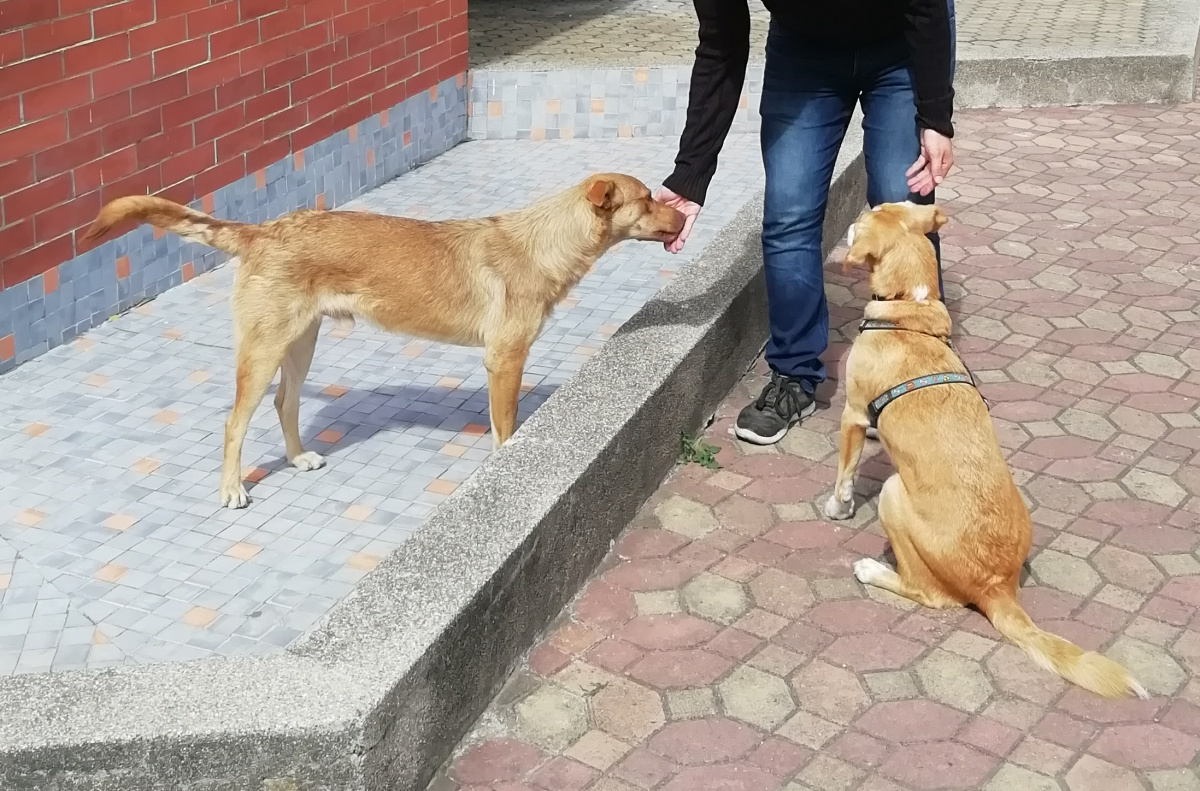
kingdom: Animalia
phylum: Chordata
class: Mammalia
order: Carnivora
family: Canidae
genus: Canis
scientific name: Canis lupus
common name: Gray wolf
